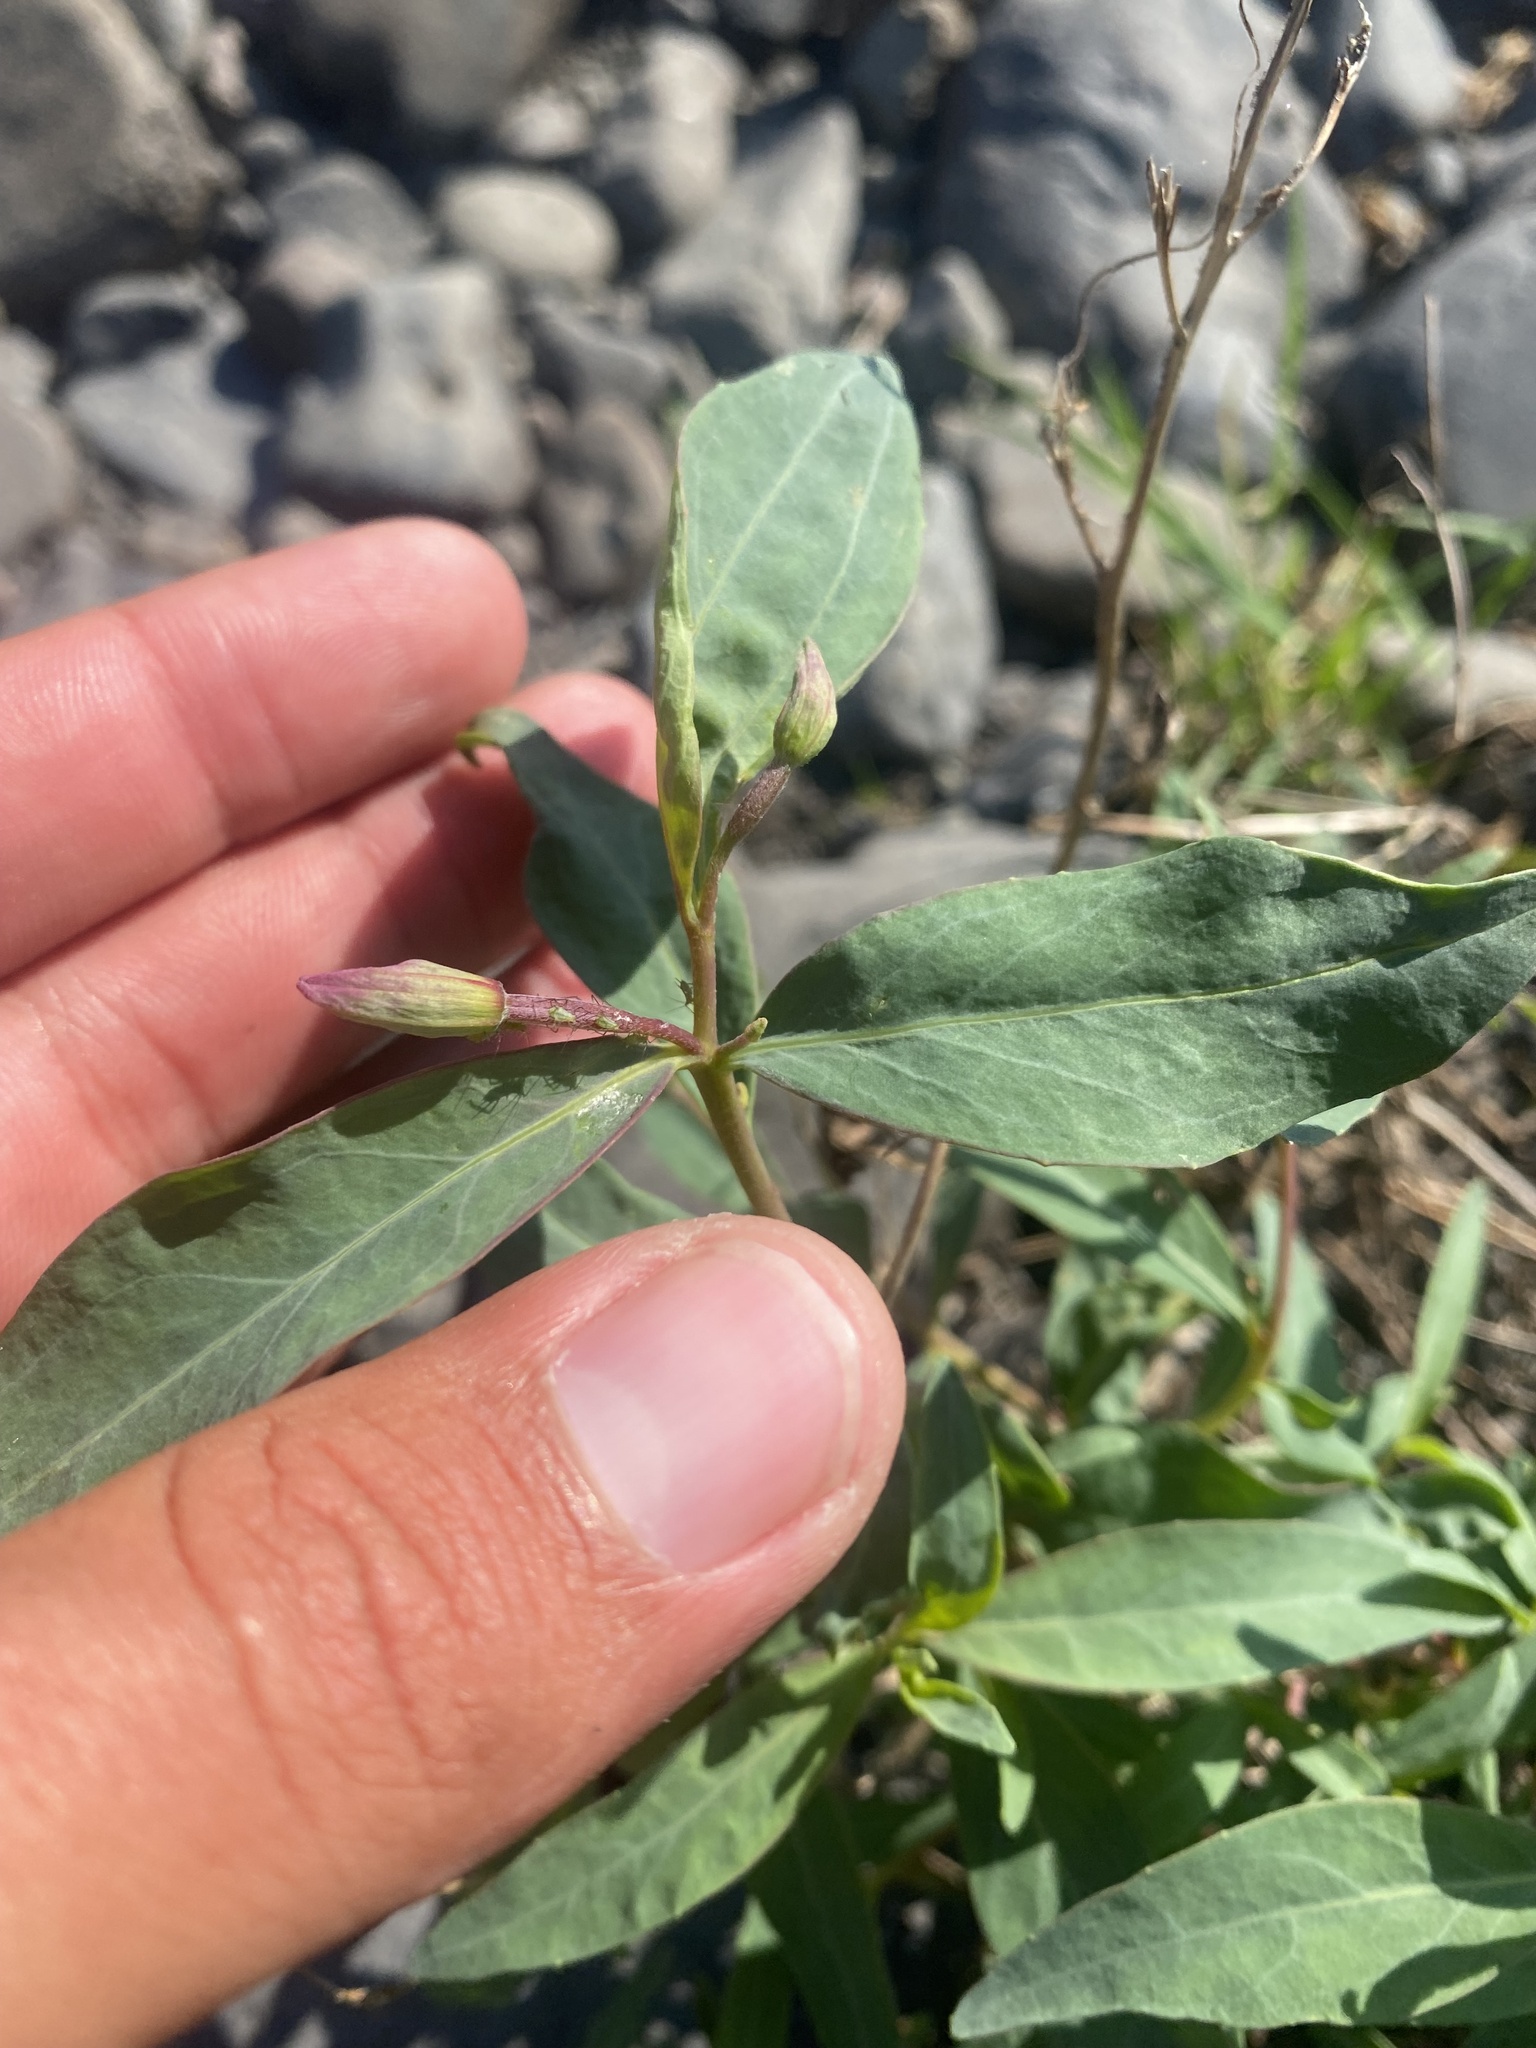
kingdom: Plantae
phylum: Tracheophyta
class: Magnoliopsida
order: Myrtales
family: Onagraceae
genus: Chamaenerion
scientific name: Chamaenerion latifolium
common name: Dwarf fireweed
